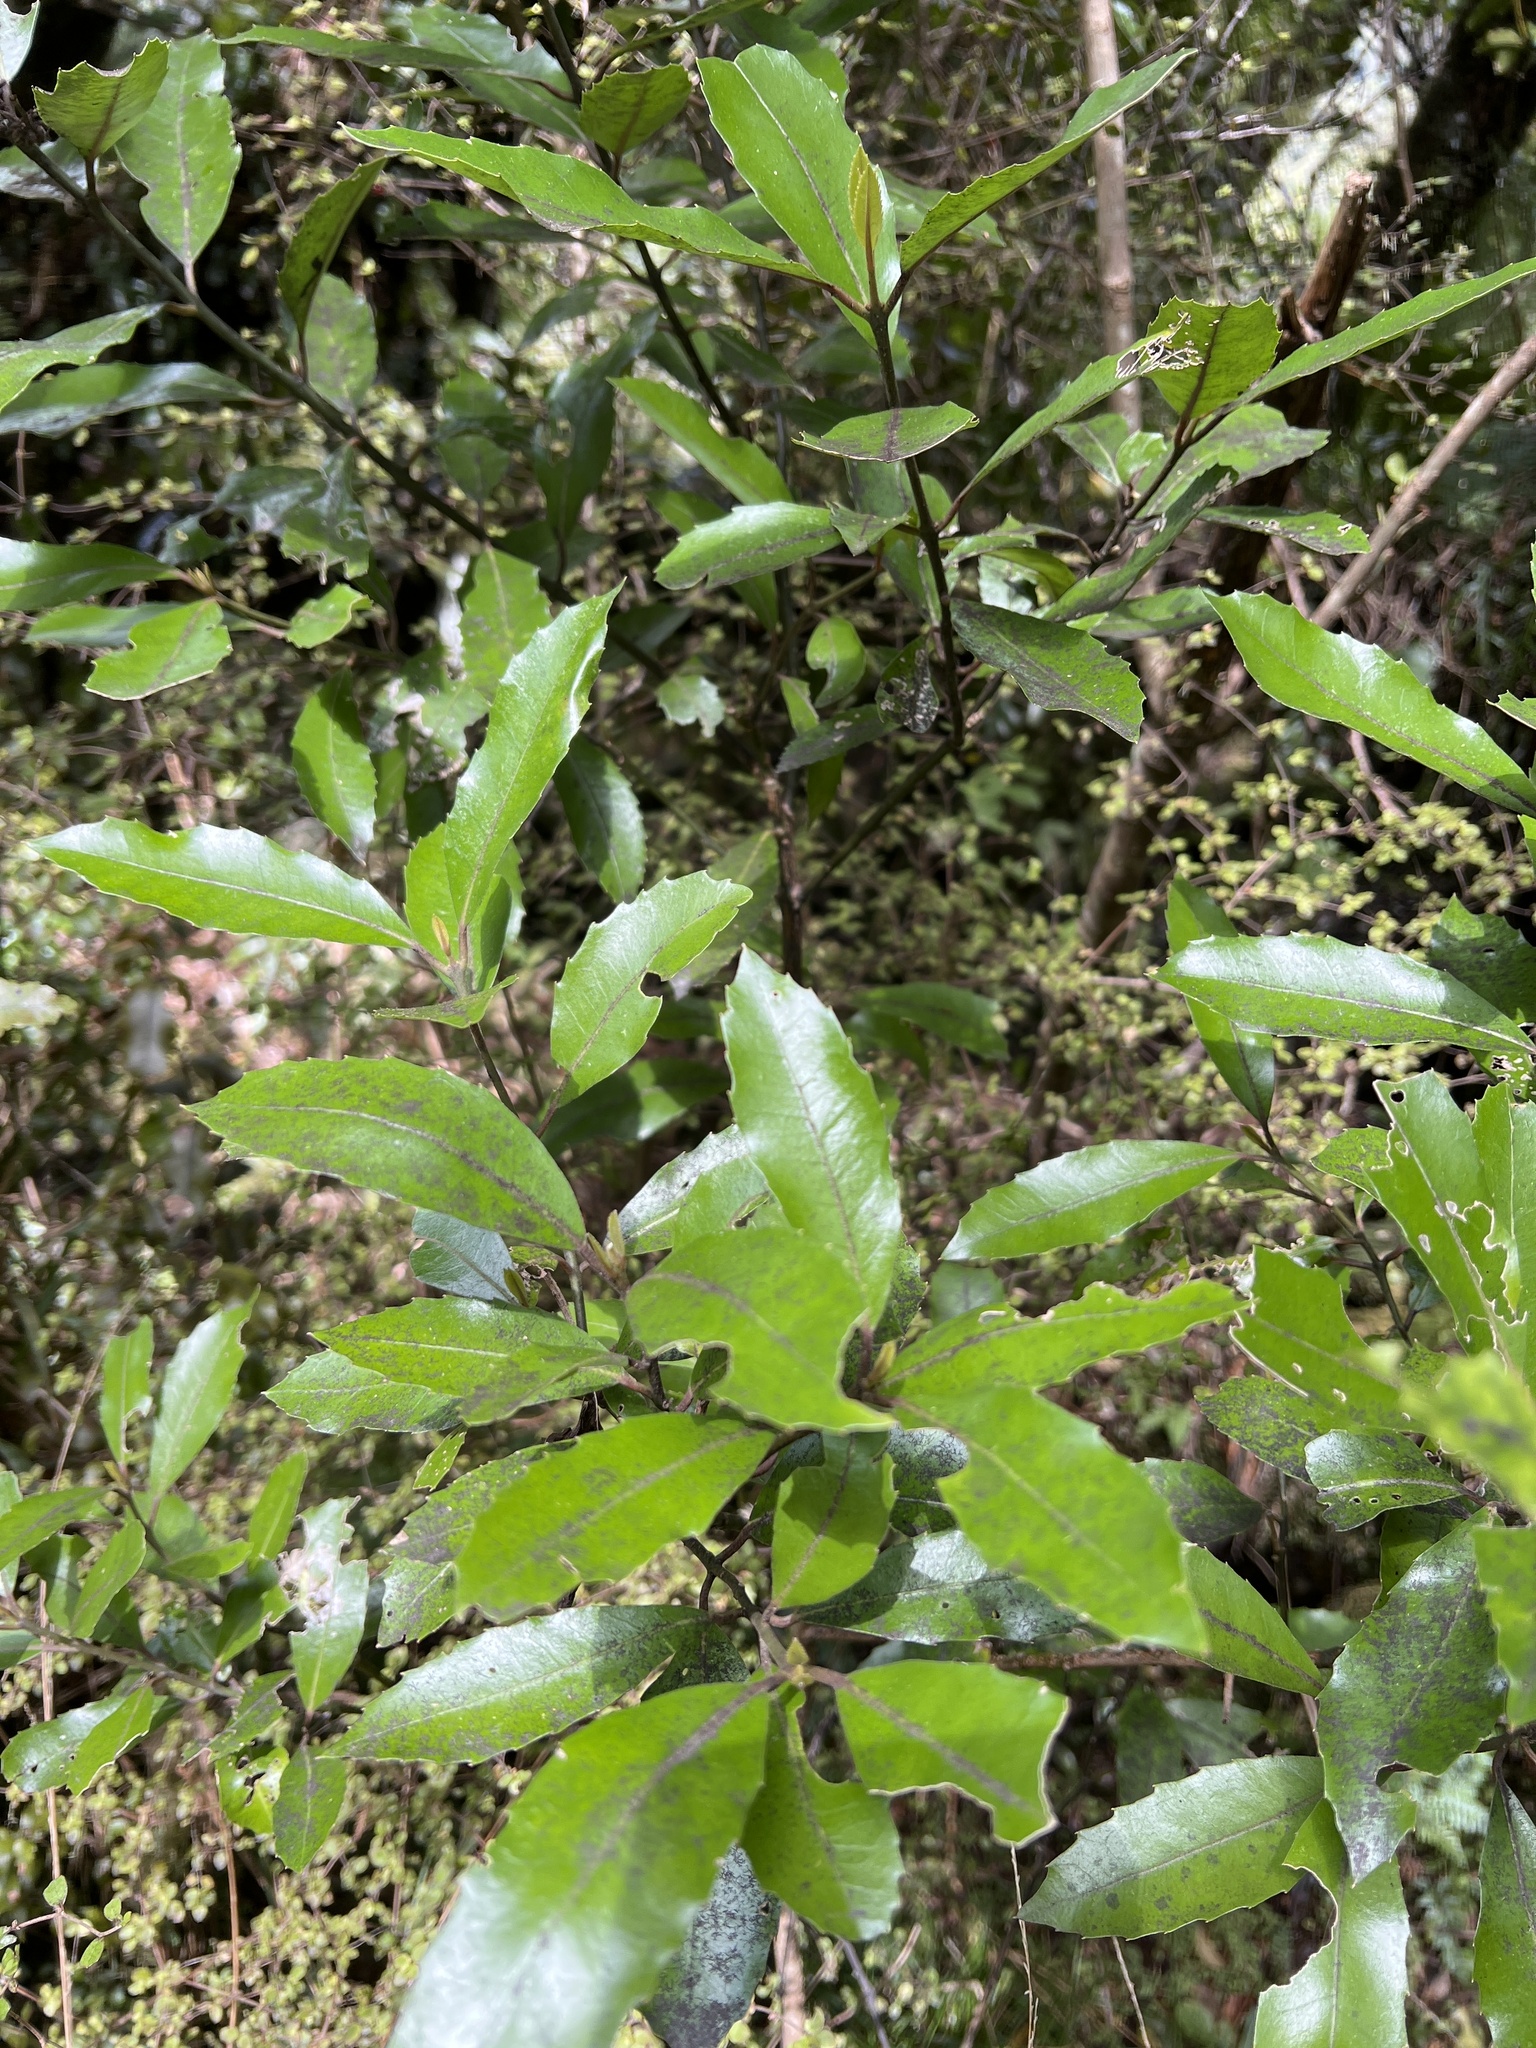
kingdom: Plantae
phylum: Tracheophyta
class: Magnoliopsida
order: Laurales
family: Monimiaceae
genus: Hedycarya
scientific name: Hedycarya arborea
